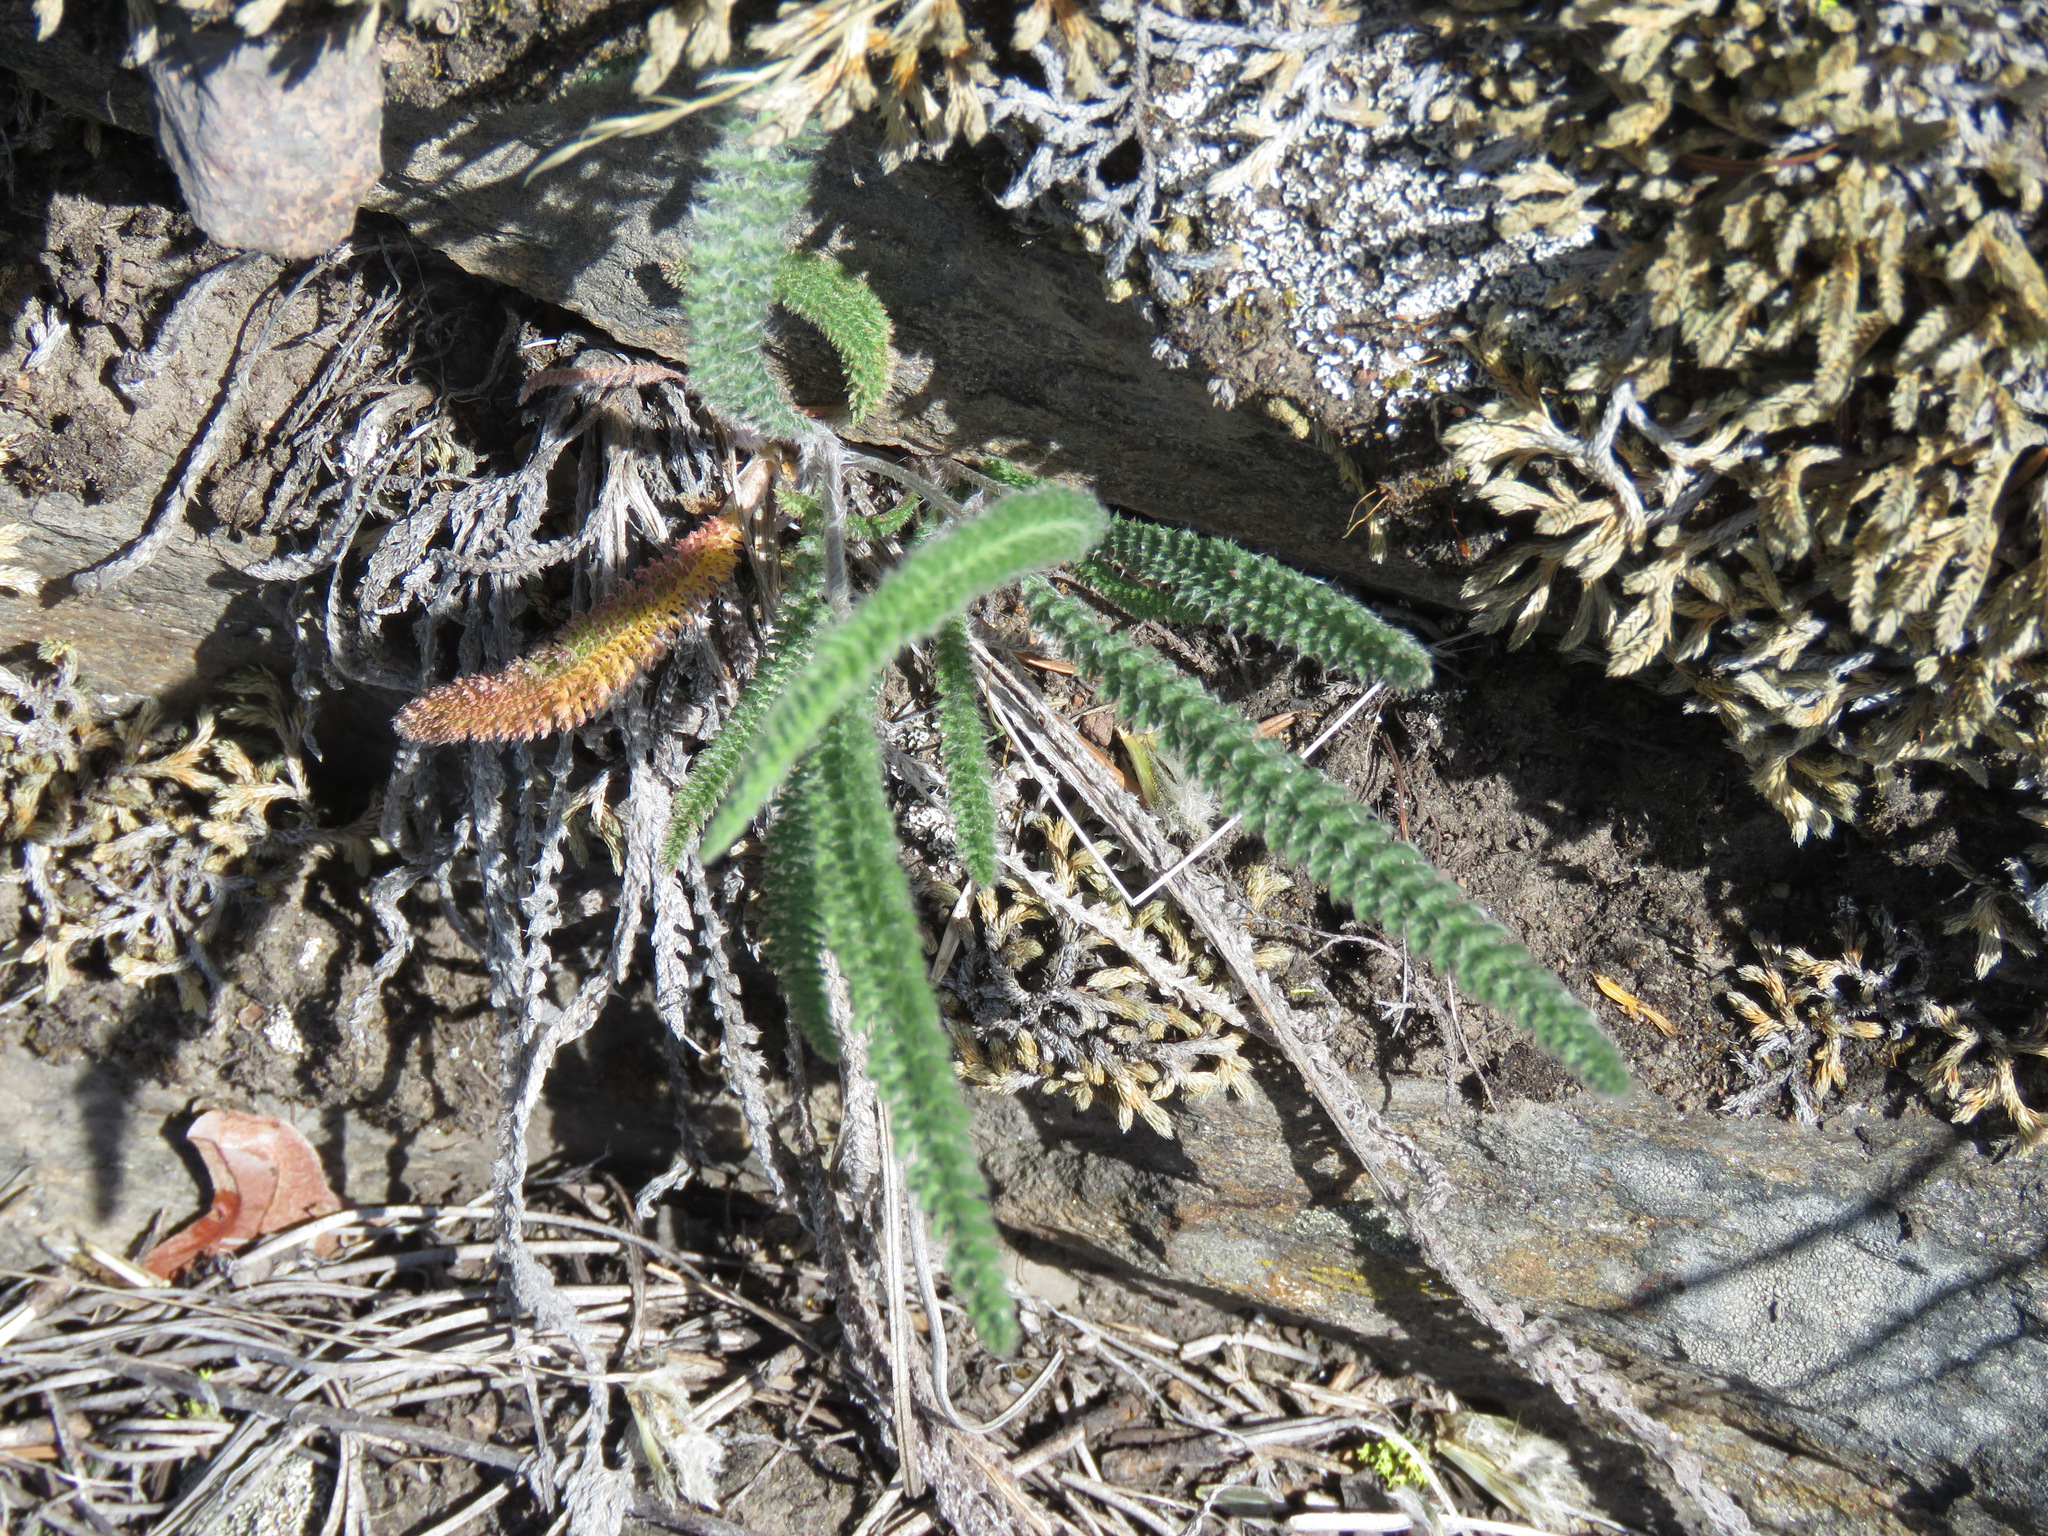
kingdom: Plantae
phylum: Tracheophyta
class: Magnoliopsida
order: Asterales
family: Asteraceae
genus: Achillea
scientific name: Achillea millefolium
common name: Yarrow
